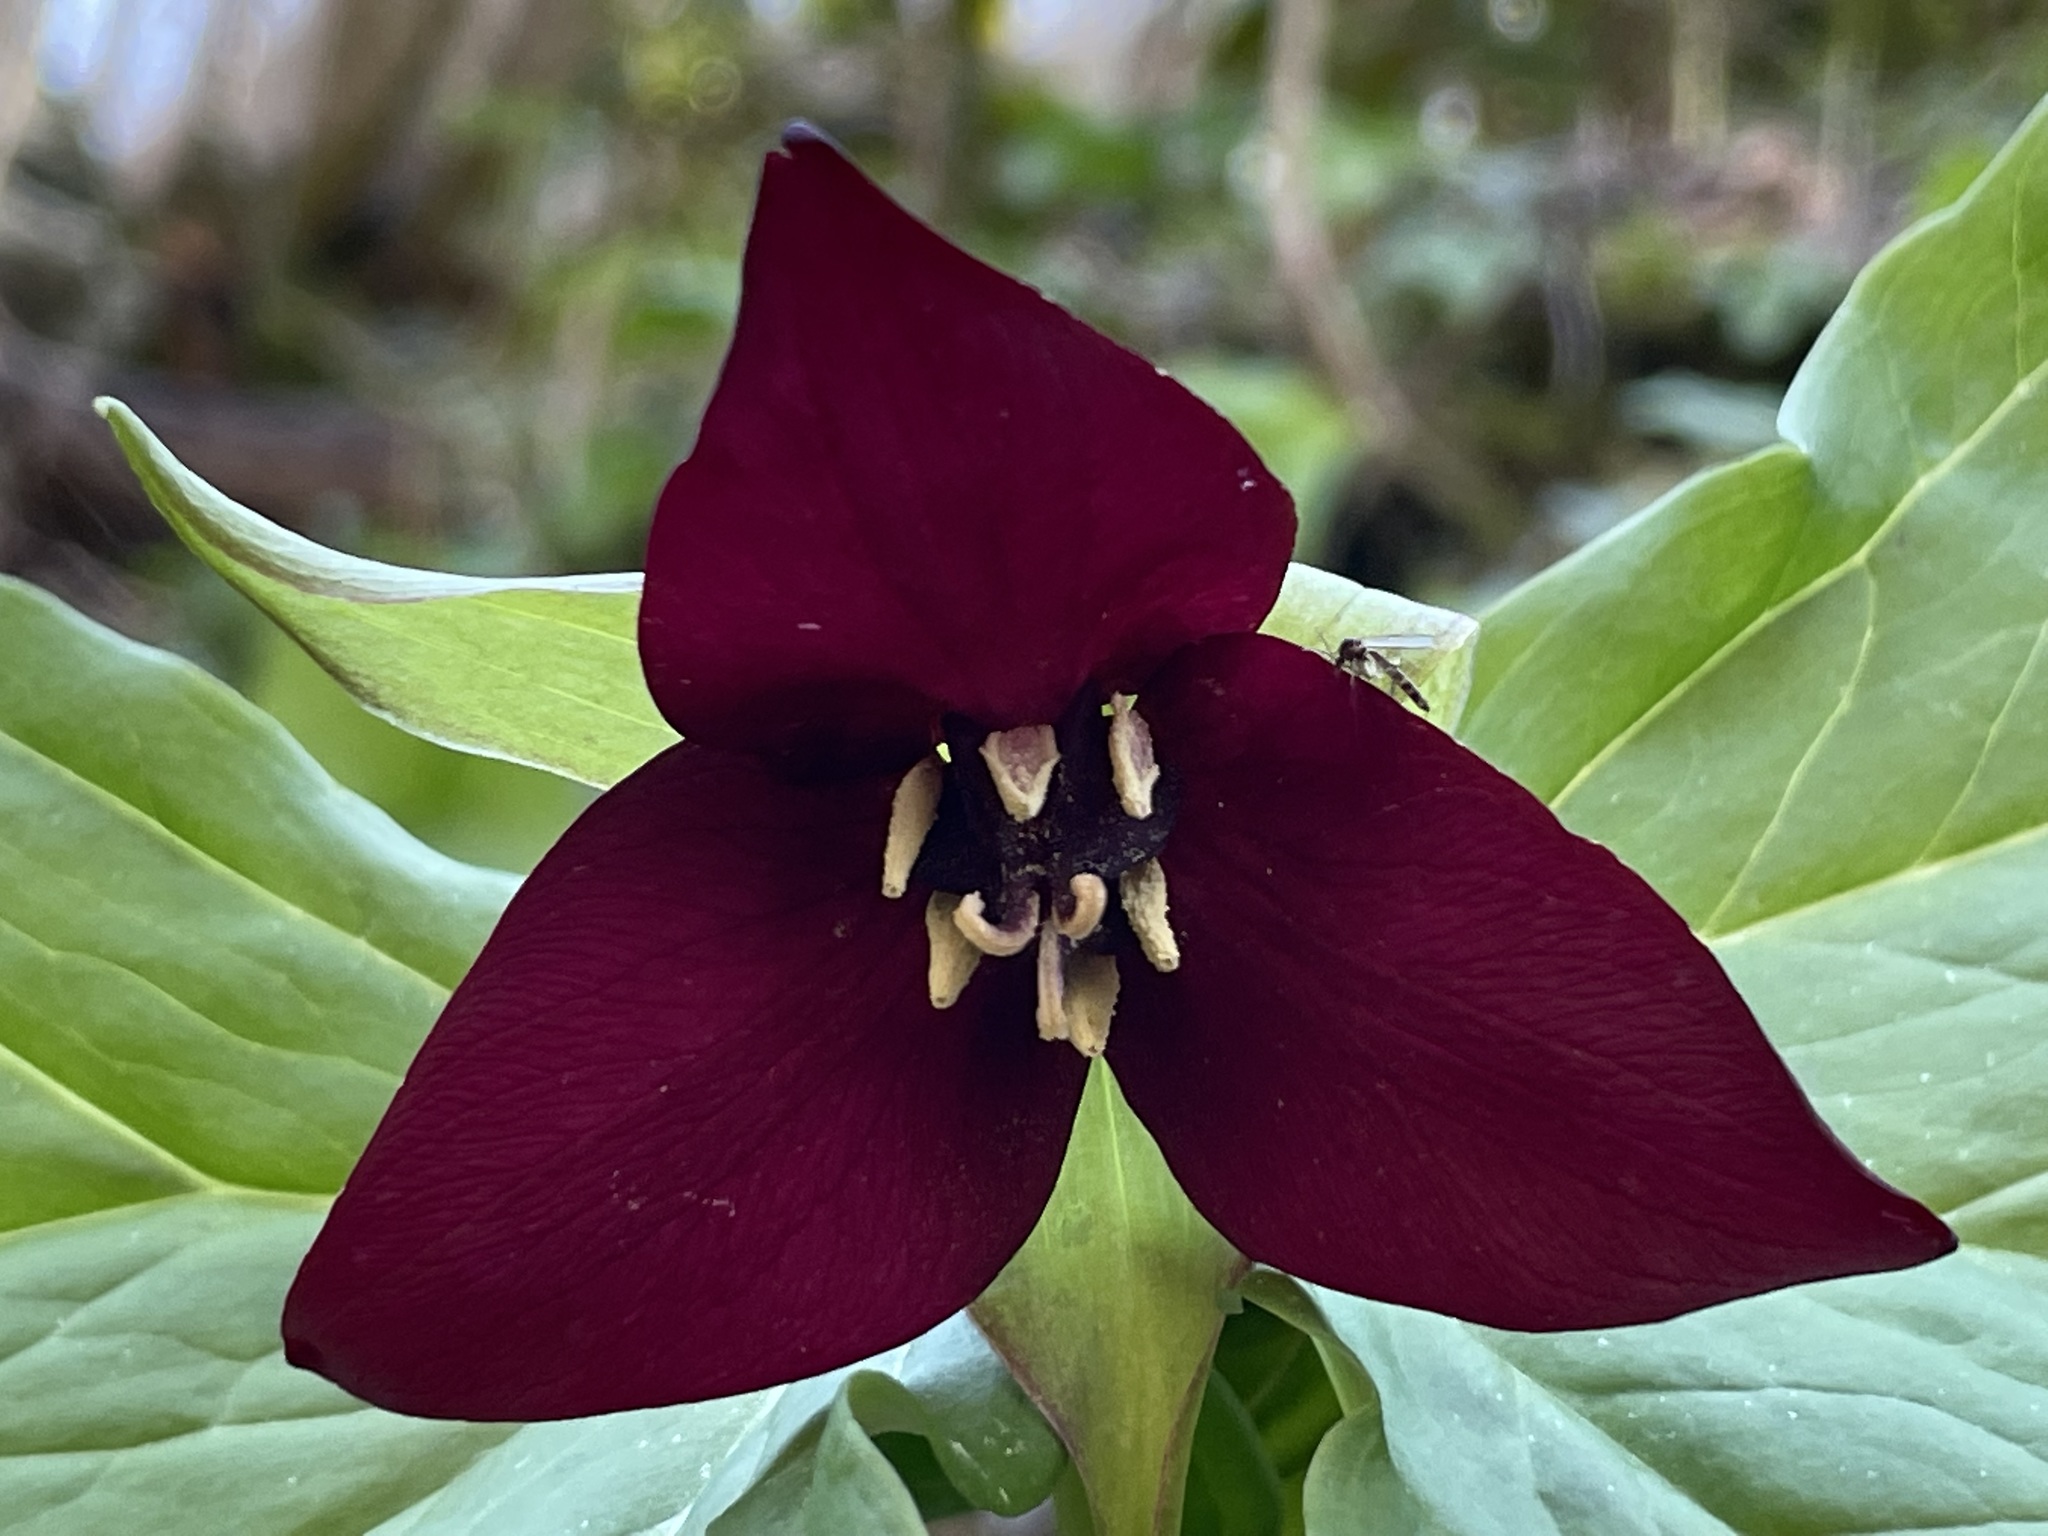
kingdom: Plantae
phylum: Tracheophyta
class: Liliopsida
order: Liliales
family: Melanthiaceae
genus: Trillium
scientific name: Trillium erectum
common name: Purple trillium
